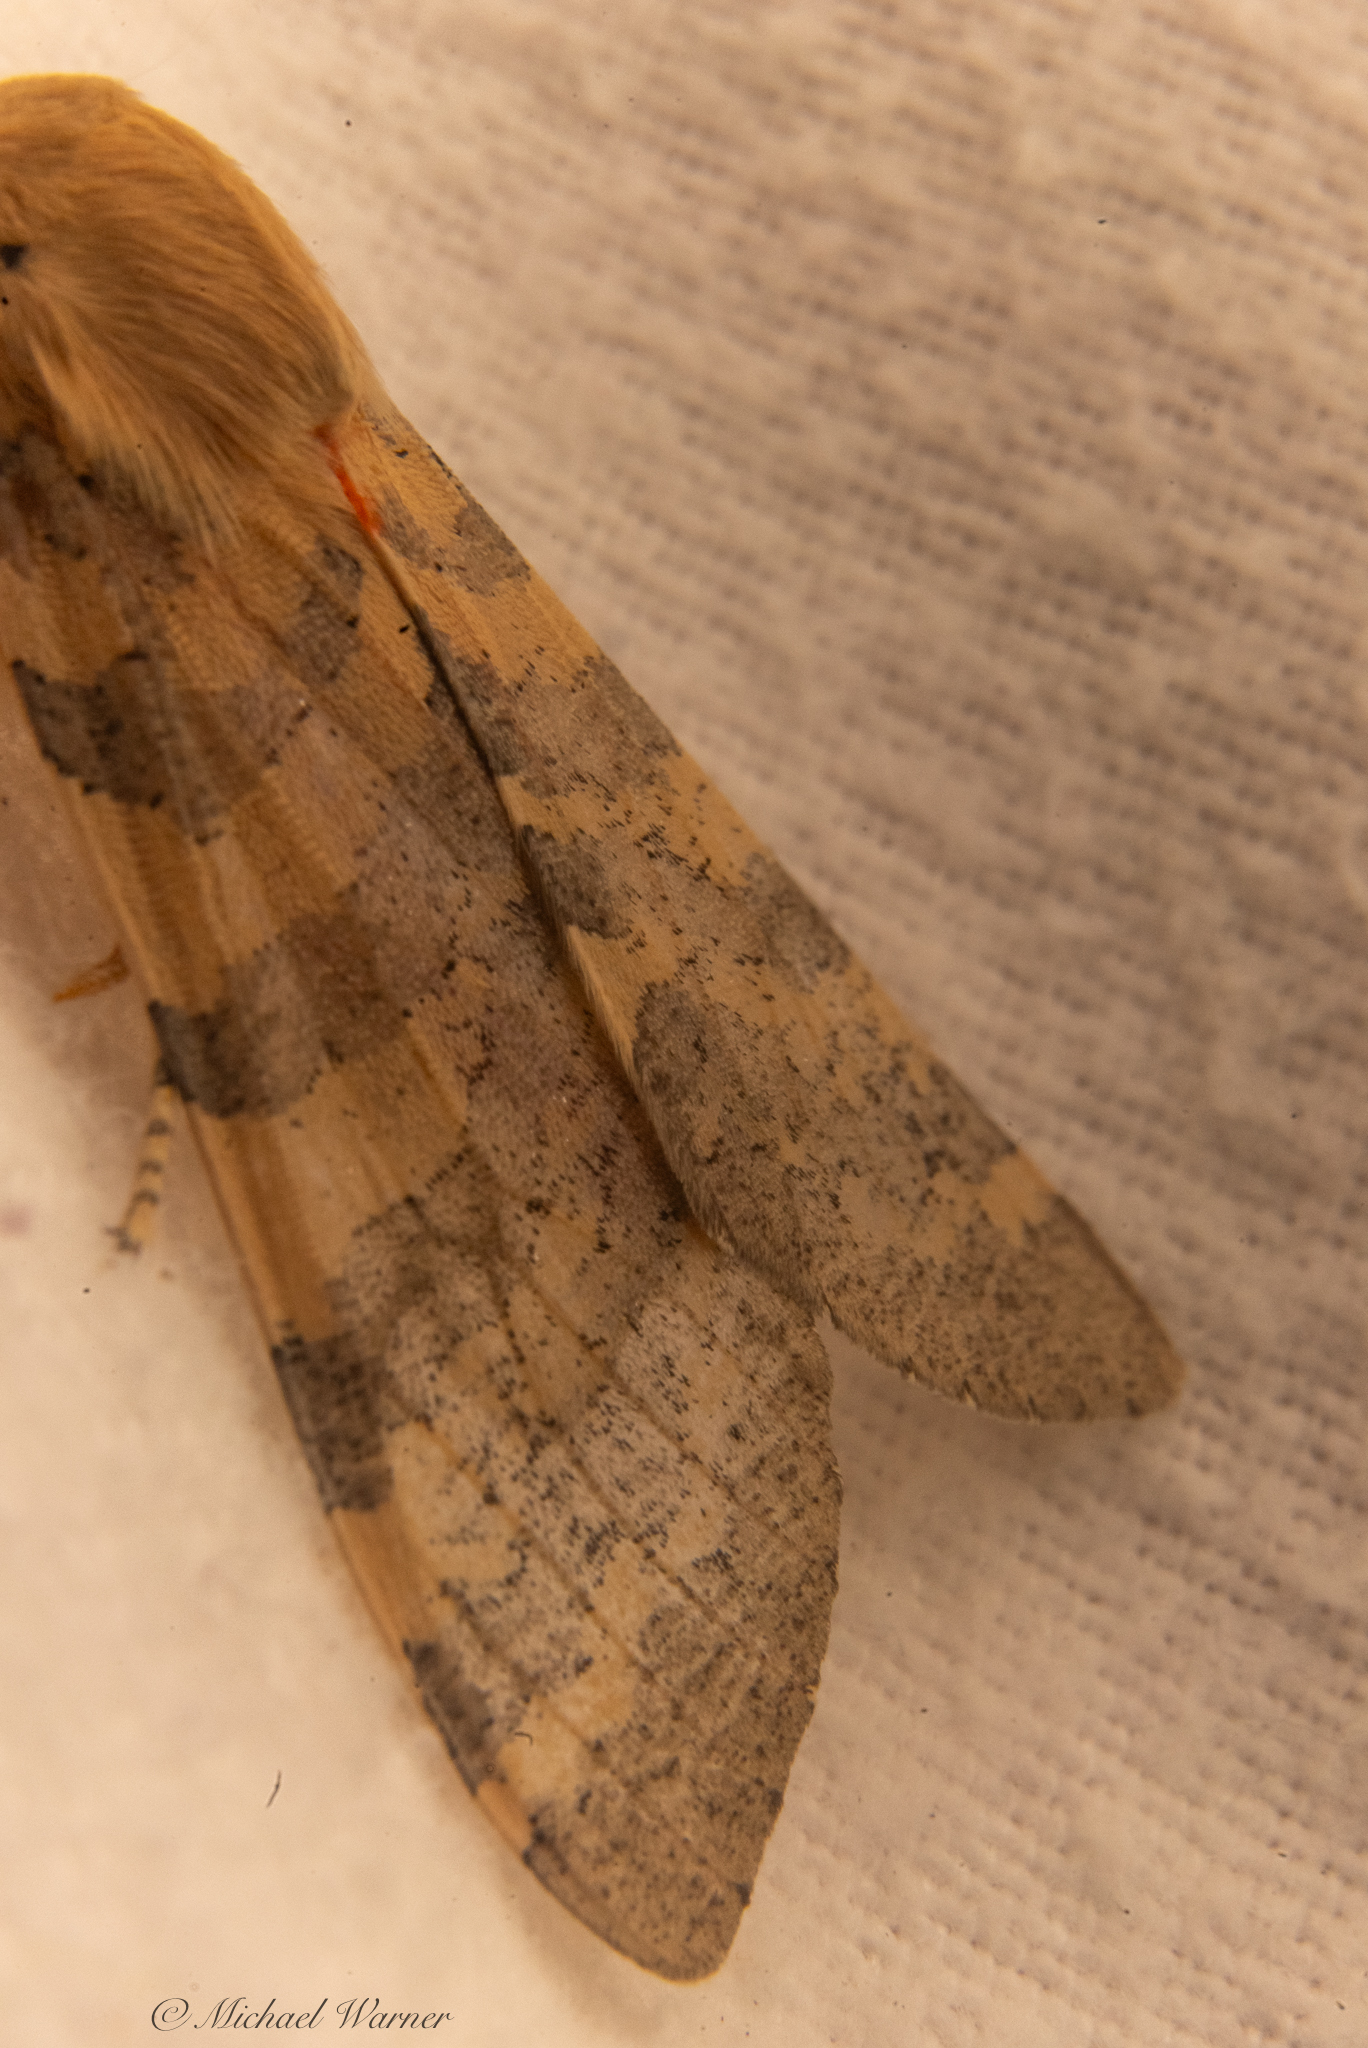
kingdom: Animalia
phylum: Arthropoda
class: Insecta
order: Lepidoptera
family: Erebidae
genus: Hemihyalea
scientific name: Hemihyalea edwardsii
